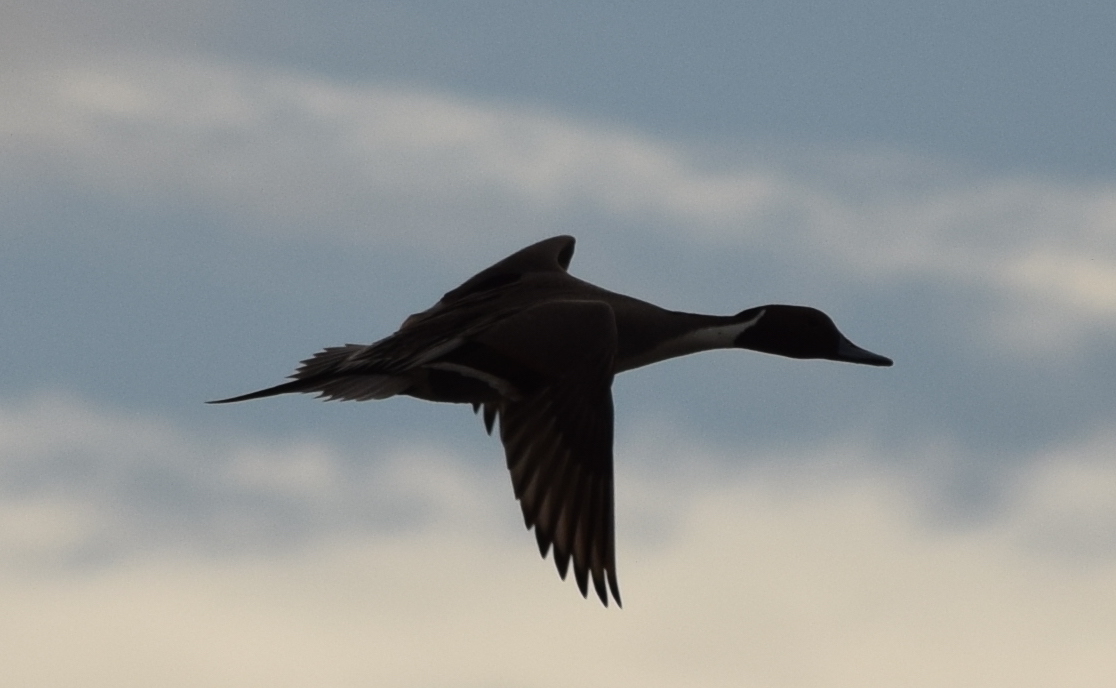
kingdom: Animalia
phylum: Chordata
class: Aves
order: Anseriformes
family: Anatidae
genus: Anas
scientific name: Anas acuta
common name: Northern pintail
